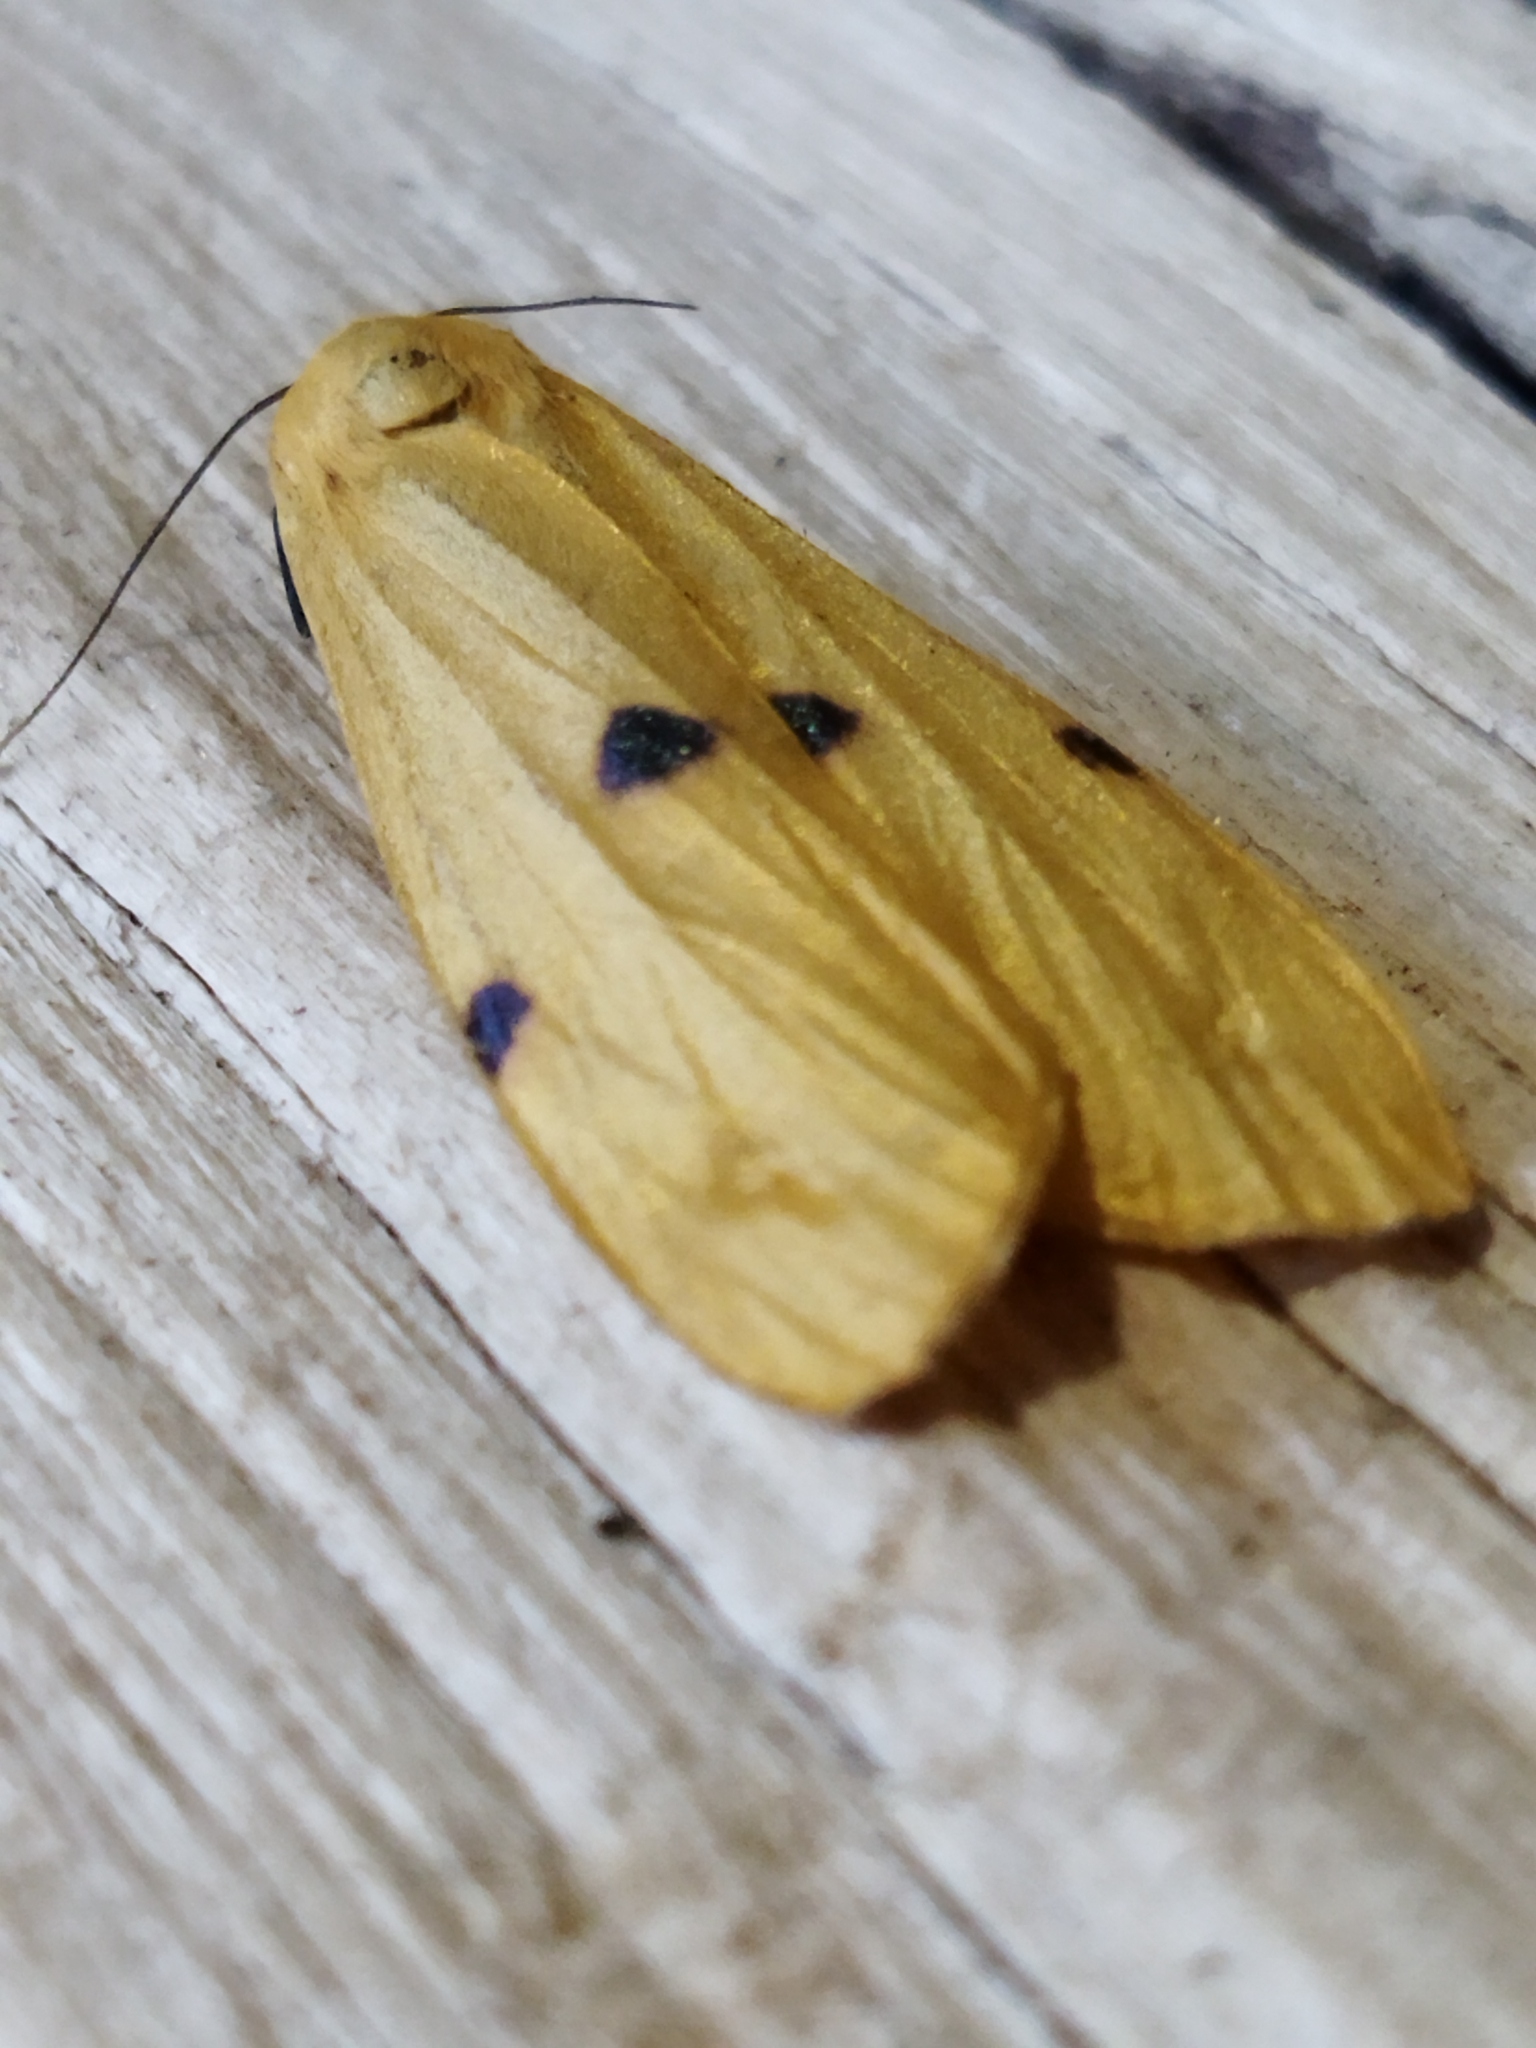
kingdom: Animalia
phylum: Arthropoda
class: Insecta
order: Lepidoptera
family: Erebidae
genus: Lithosia
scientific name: Lithosia quadra
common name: Four-spotted footman
